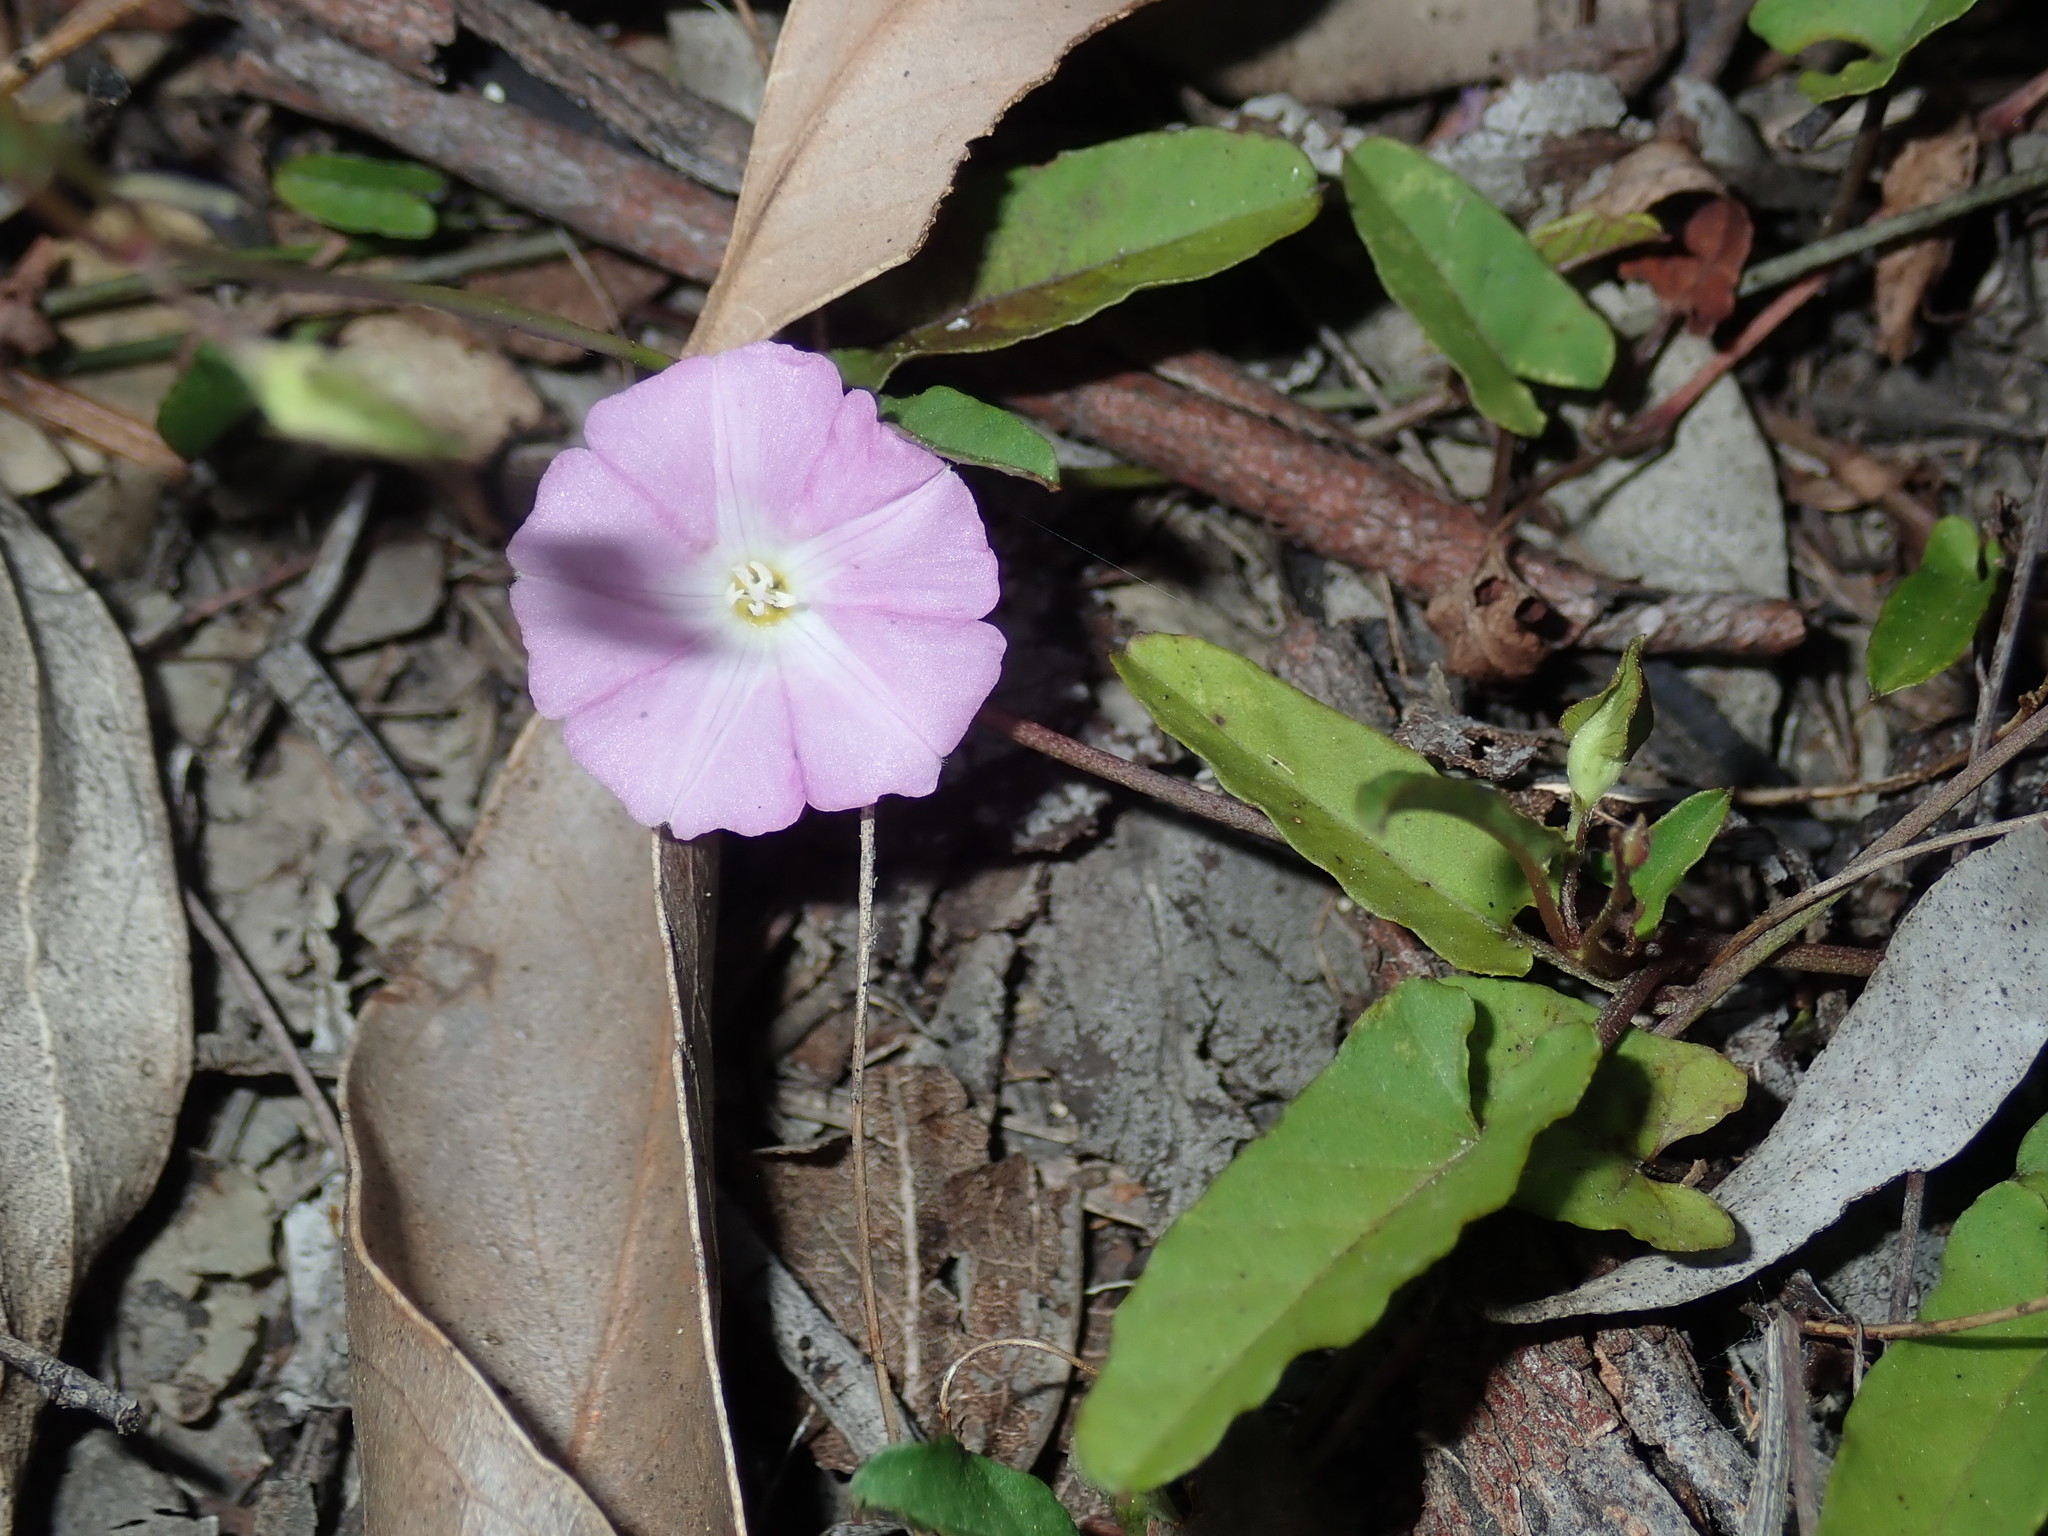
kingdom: Plantae
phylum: Tracheophyta
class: Magnoliopsida
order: Solanales
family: Convolvulaceae
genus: Polymeria
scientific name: Polymeria calycina
